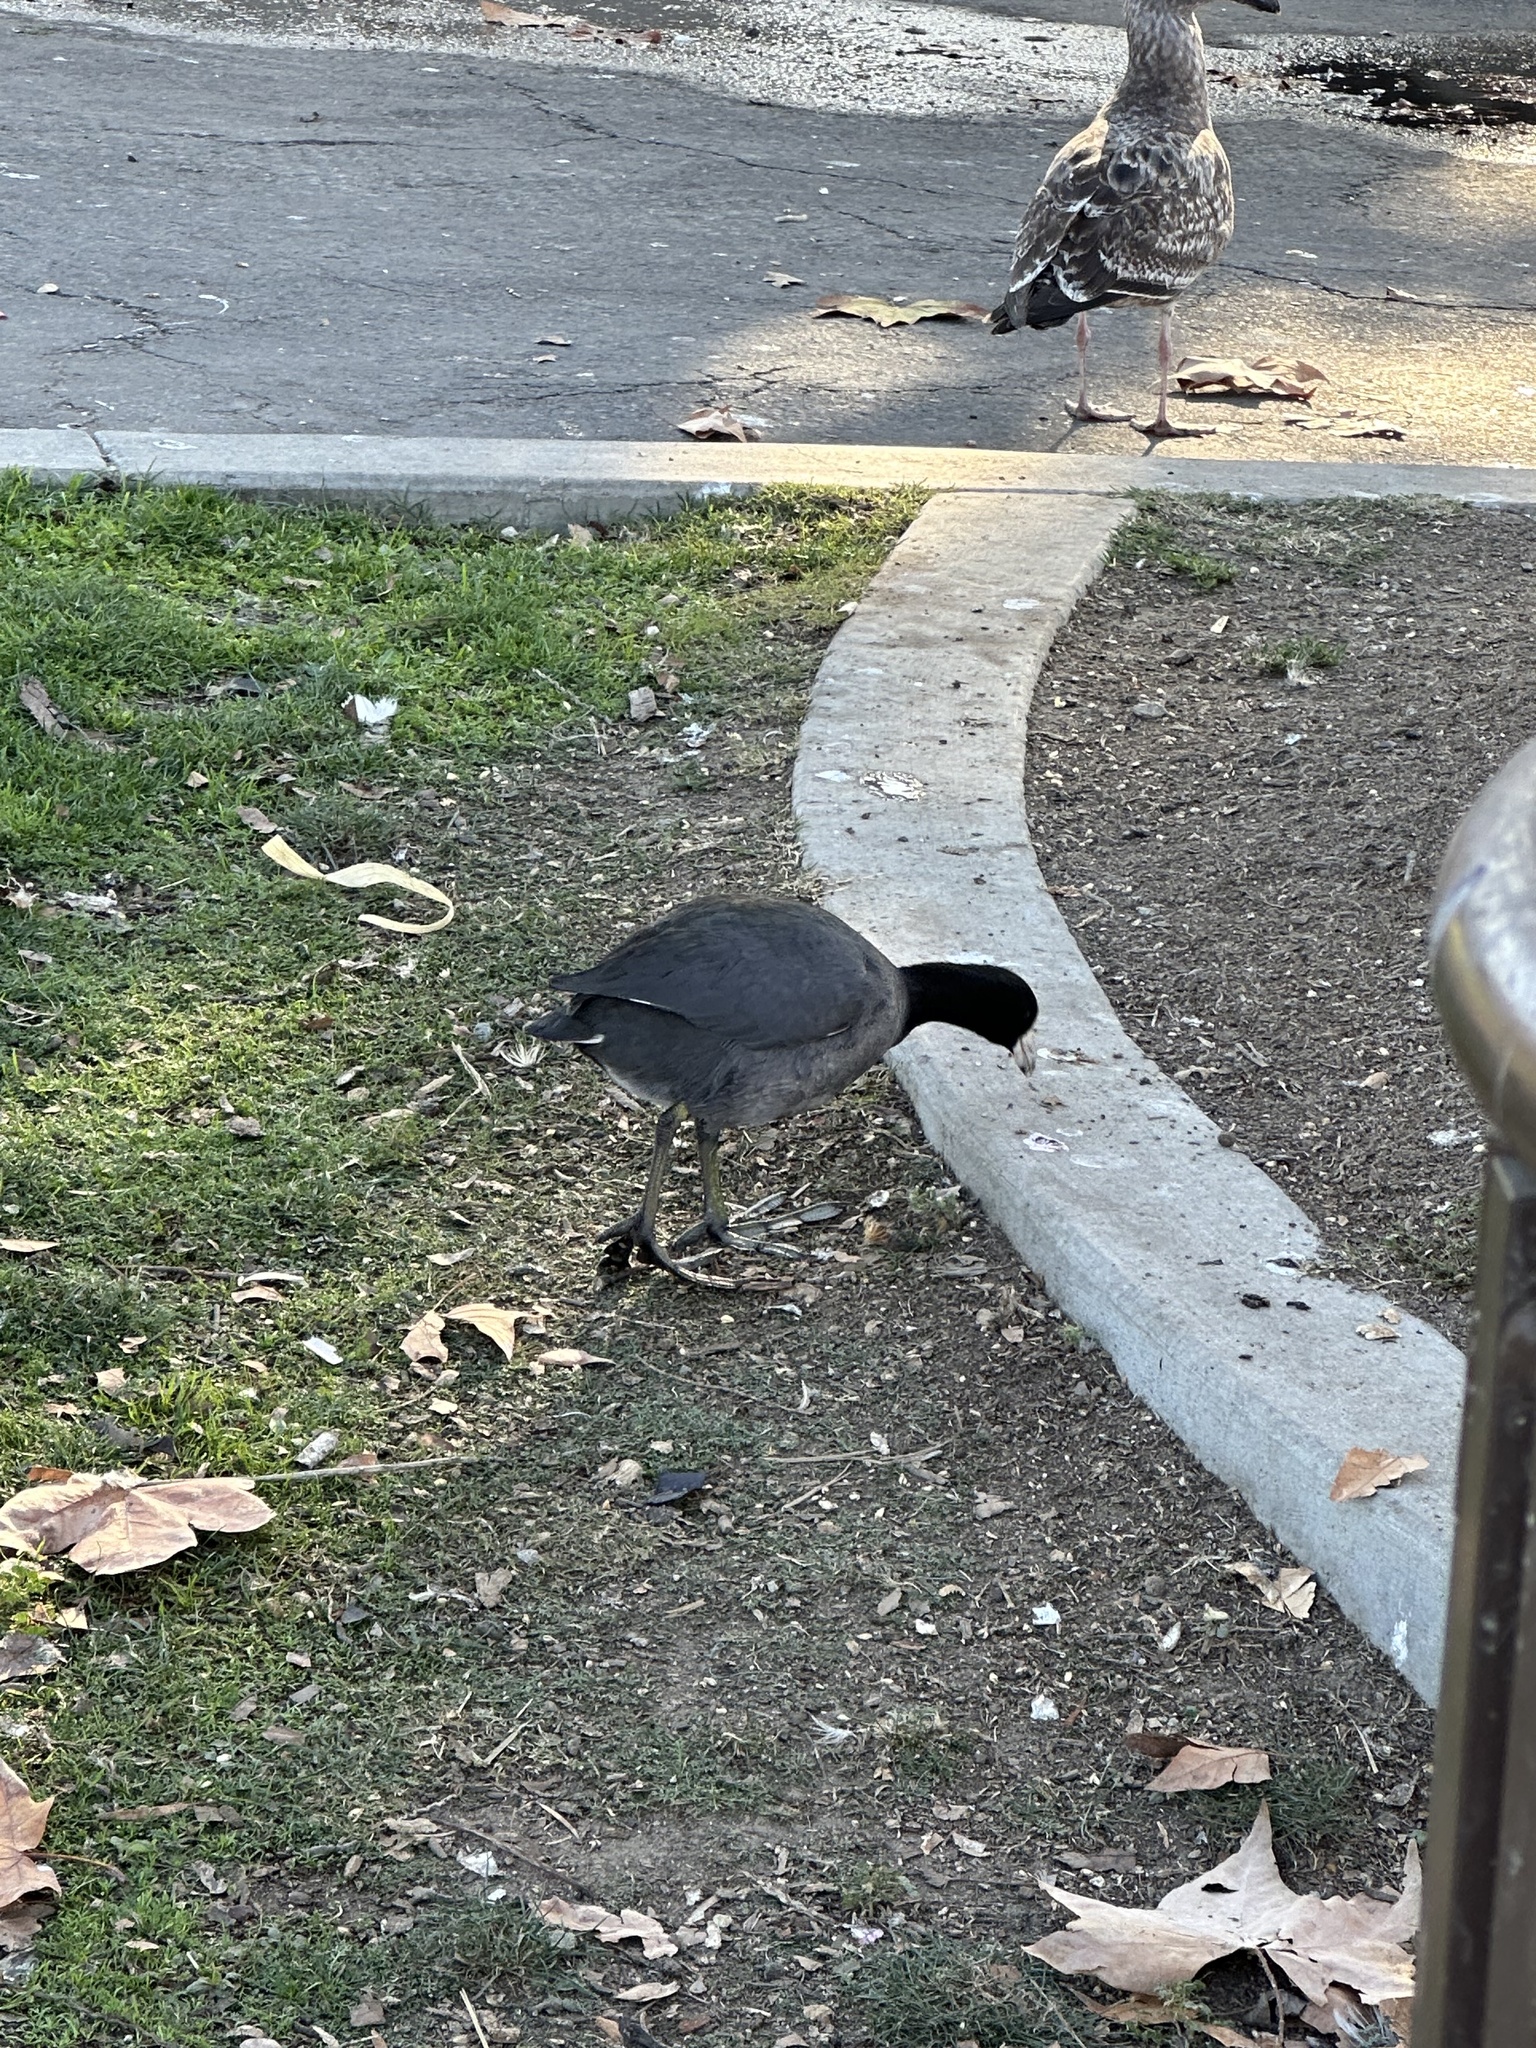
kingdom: Animalia
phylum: Chordata
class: Aves
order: Gruiformes
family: Rallidae
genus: Fulica
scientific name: Fulica americana
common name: American coot
